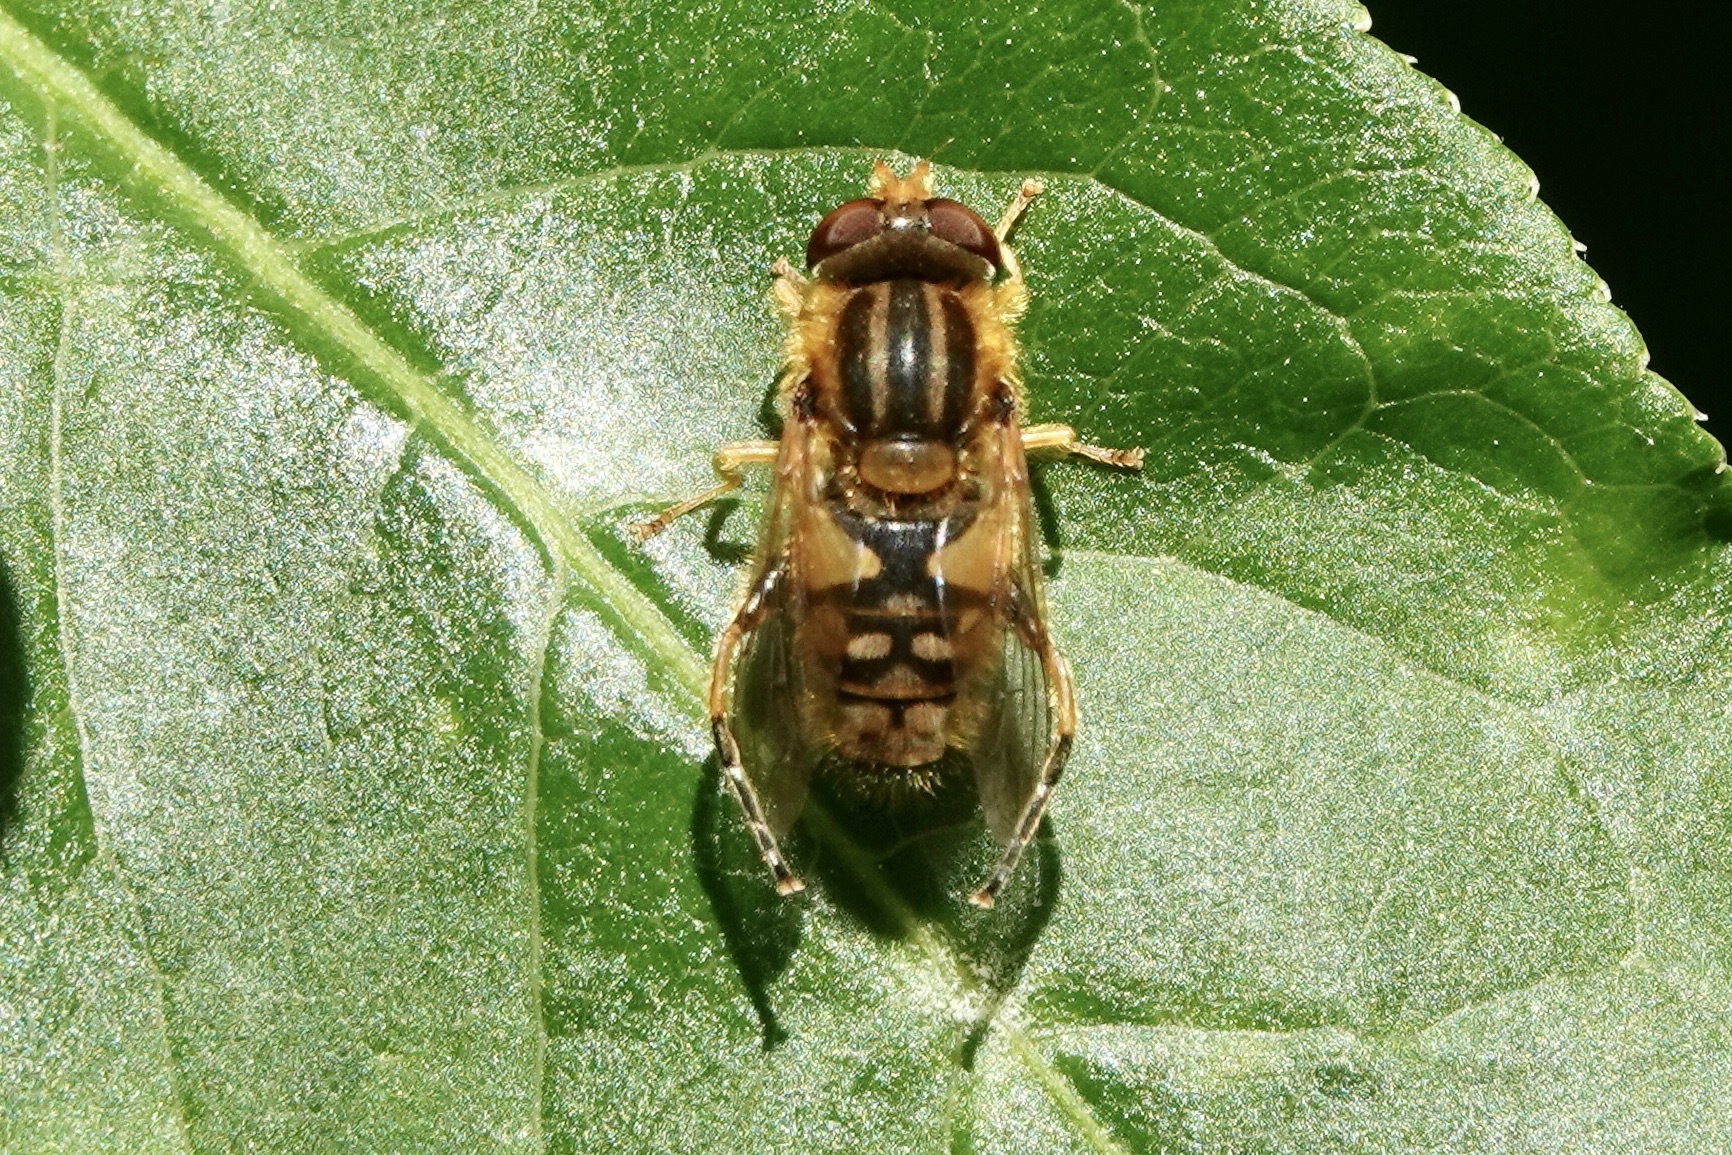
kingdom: Animalia
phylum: Arthropoda
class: Insecta
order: Diptera
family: Syrphidae
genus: Parhelophilus
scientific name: Parhelophilus
